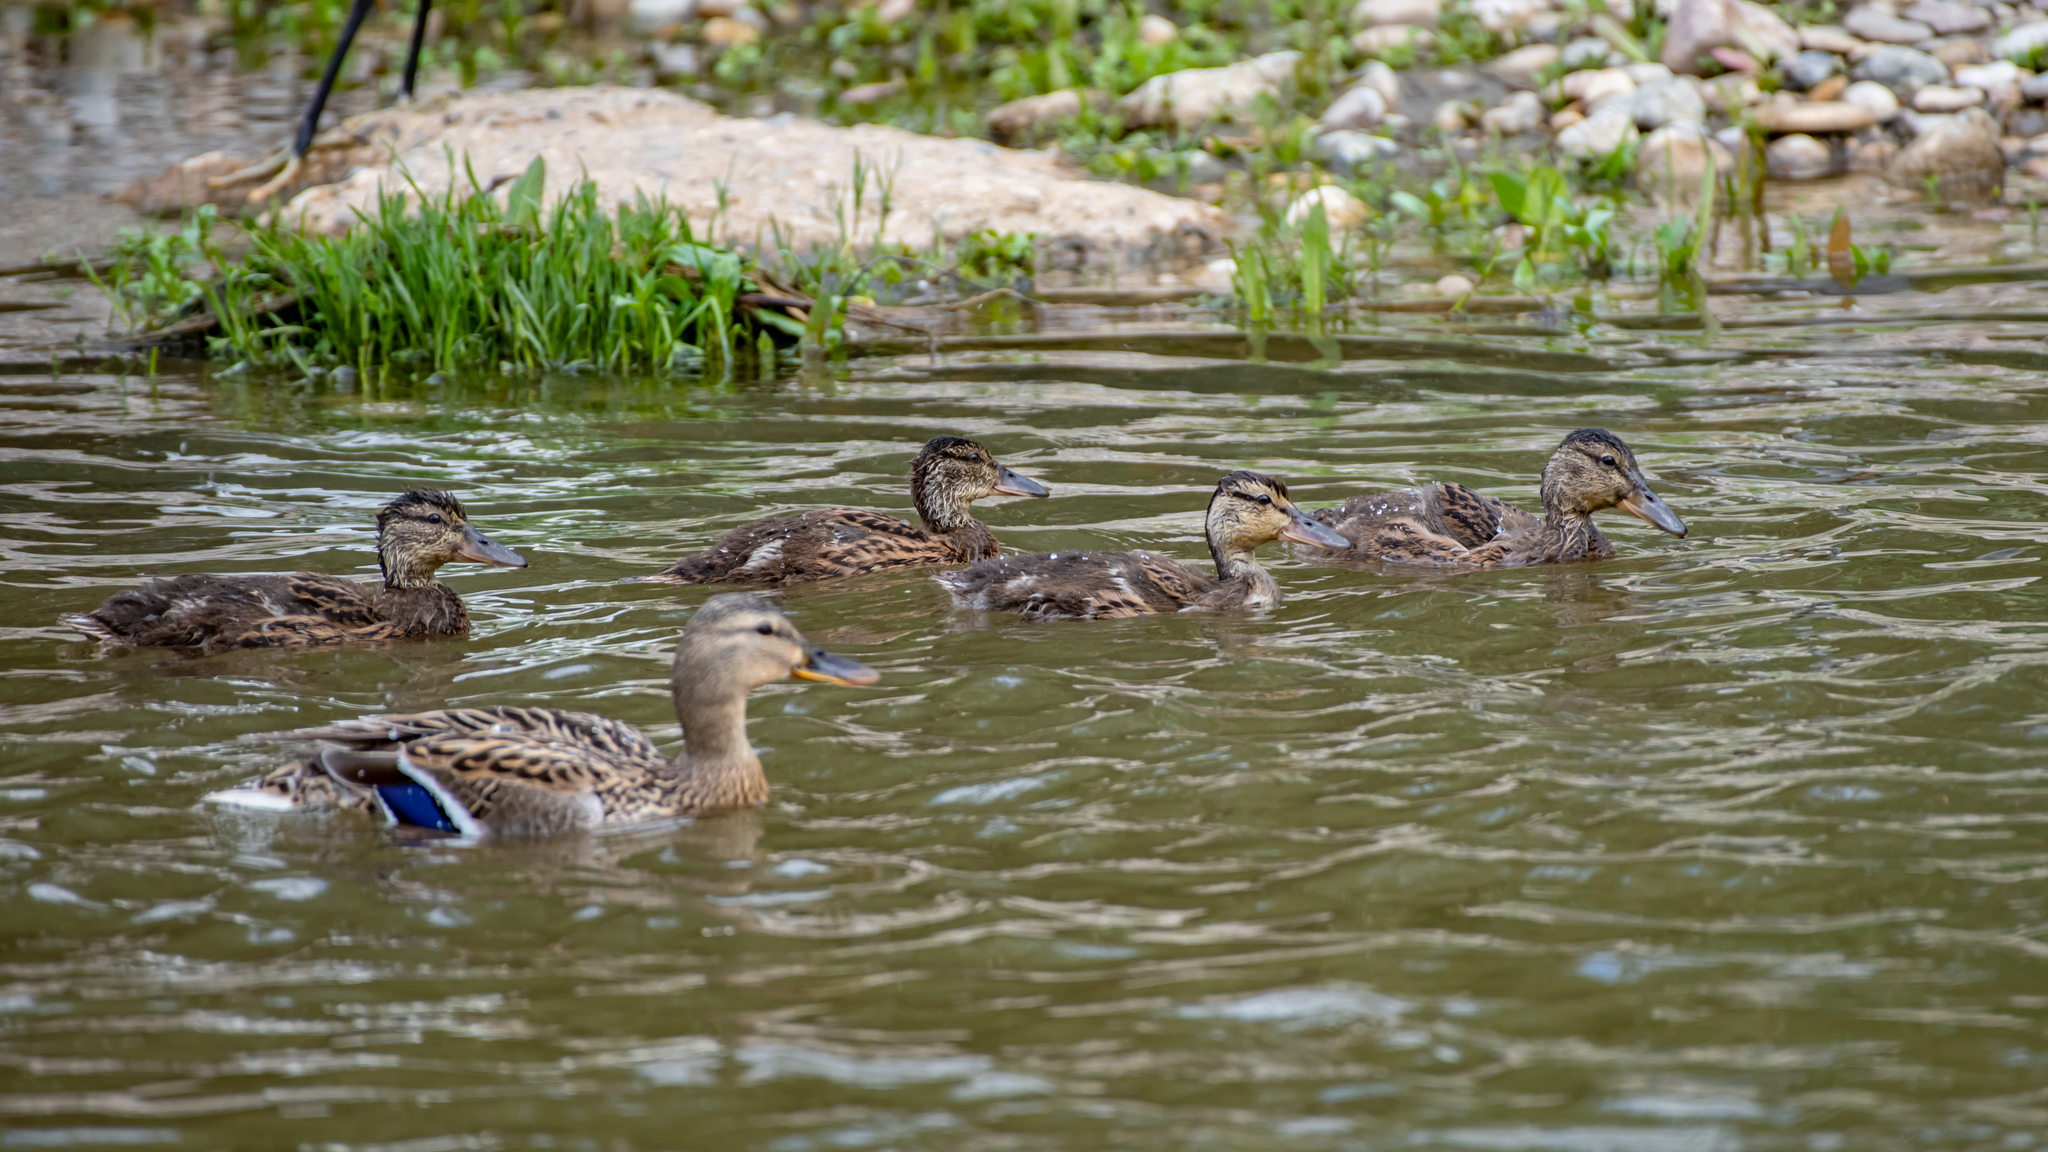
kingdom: Animalia
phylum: Chordata
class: Aves
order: Anseriformes
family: Anatidae
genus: Anas
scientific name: Anas platyrhynchos
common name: Mallard
